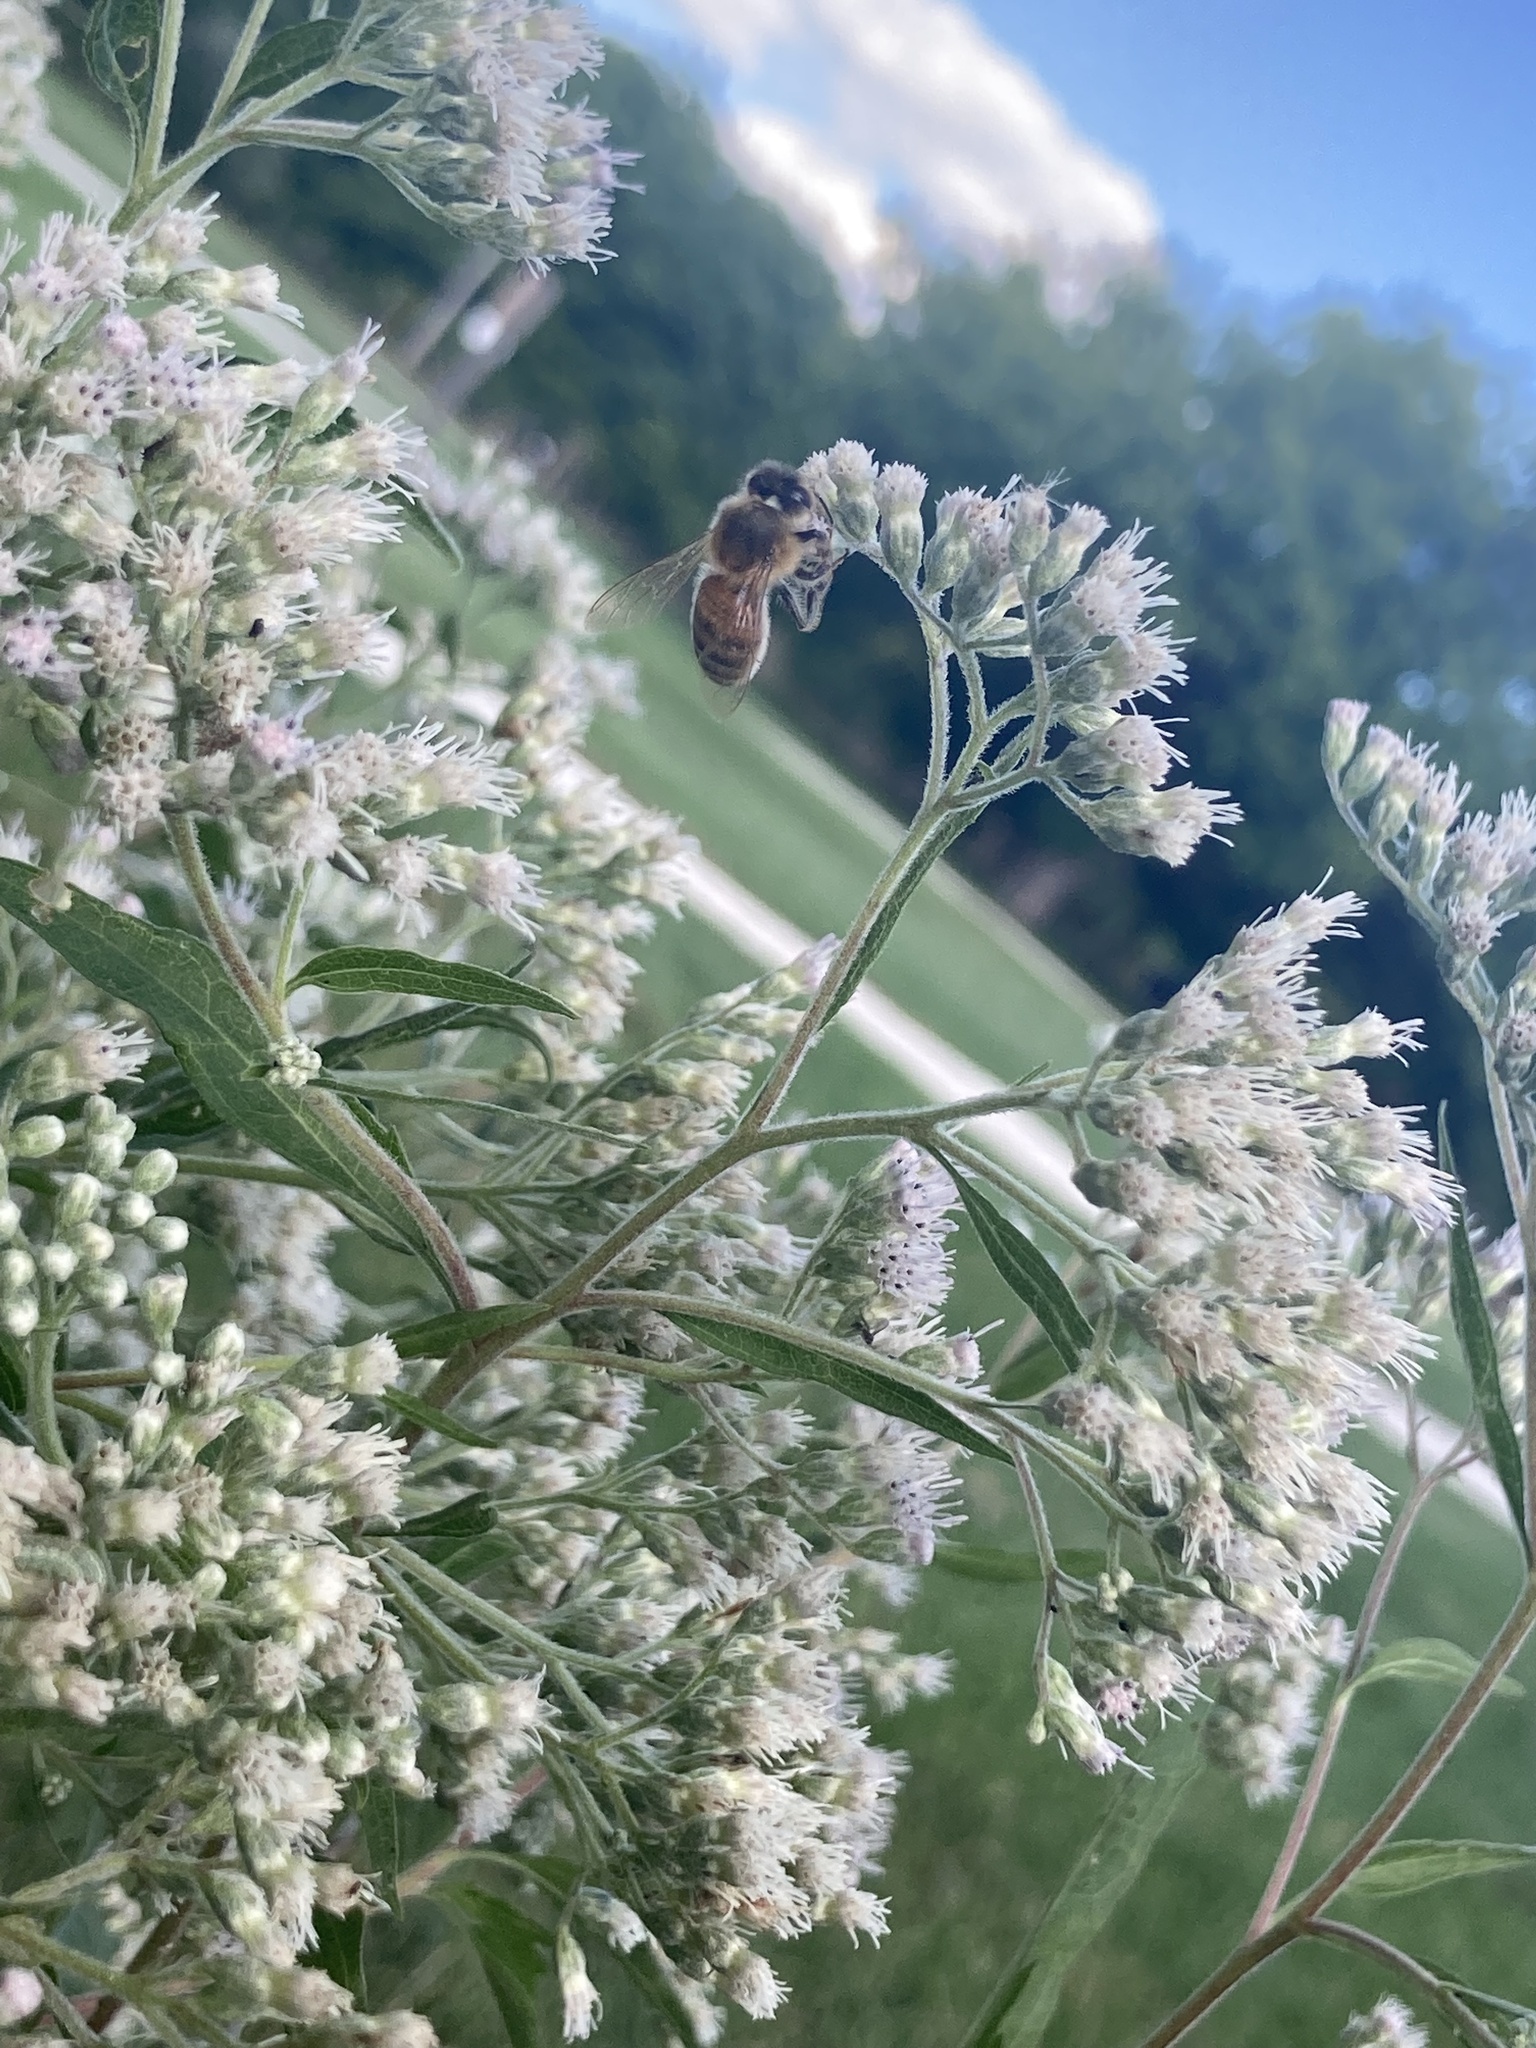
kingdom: Animalia
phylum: Arthropoda
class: Insecta
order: Hymenoptera
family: Apidae
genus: Apis
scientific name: Apis mellifera
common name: Honey bee
